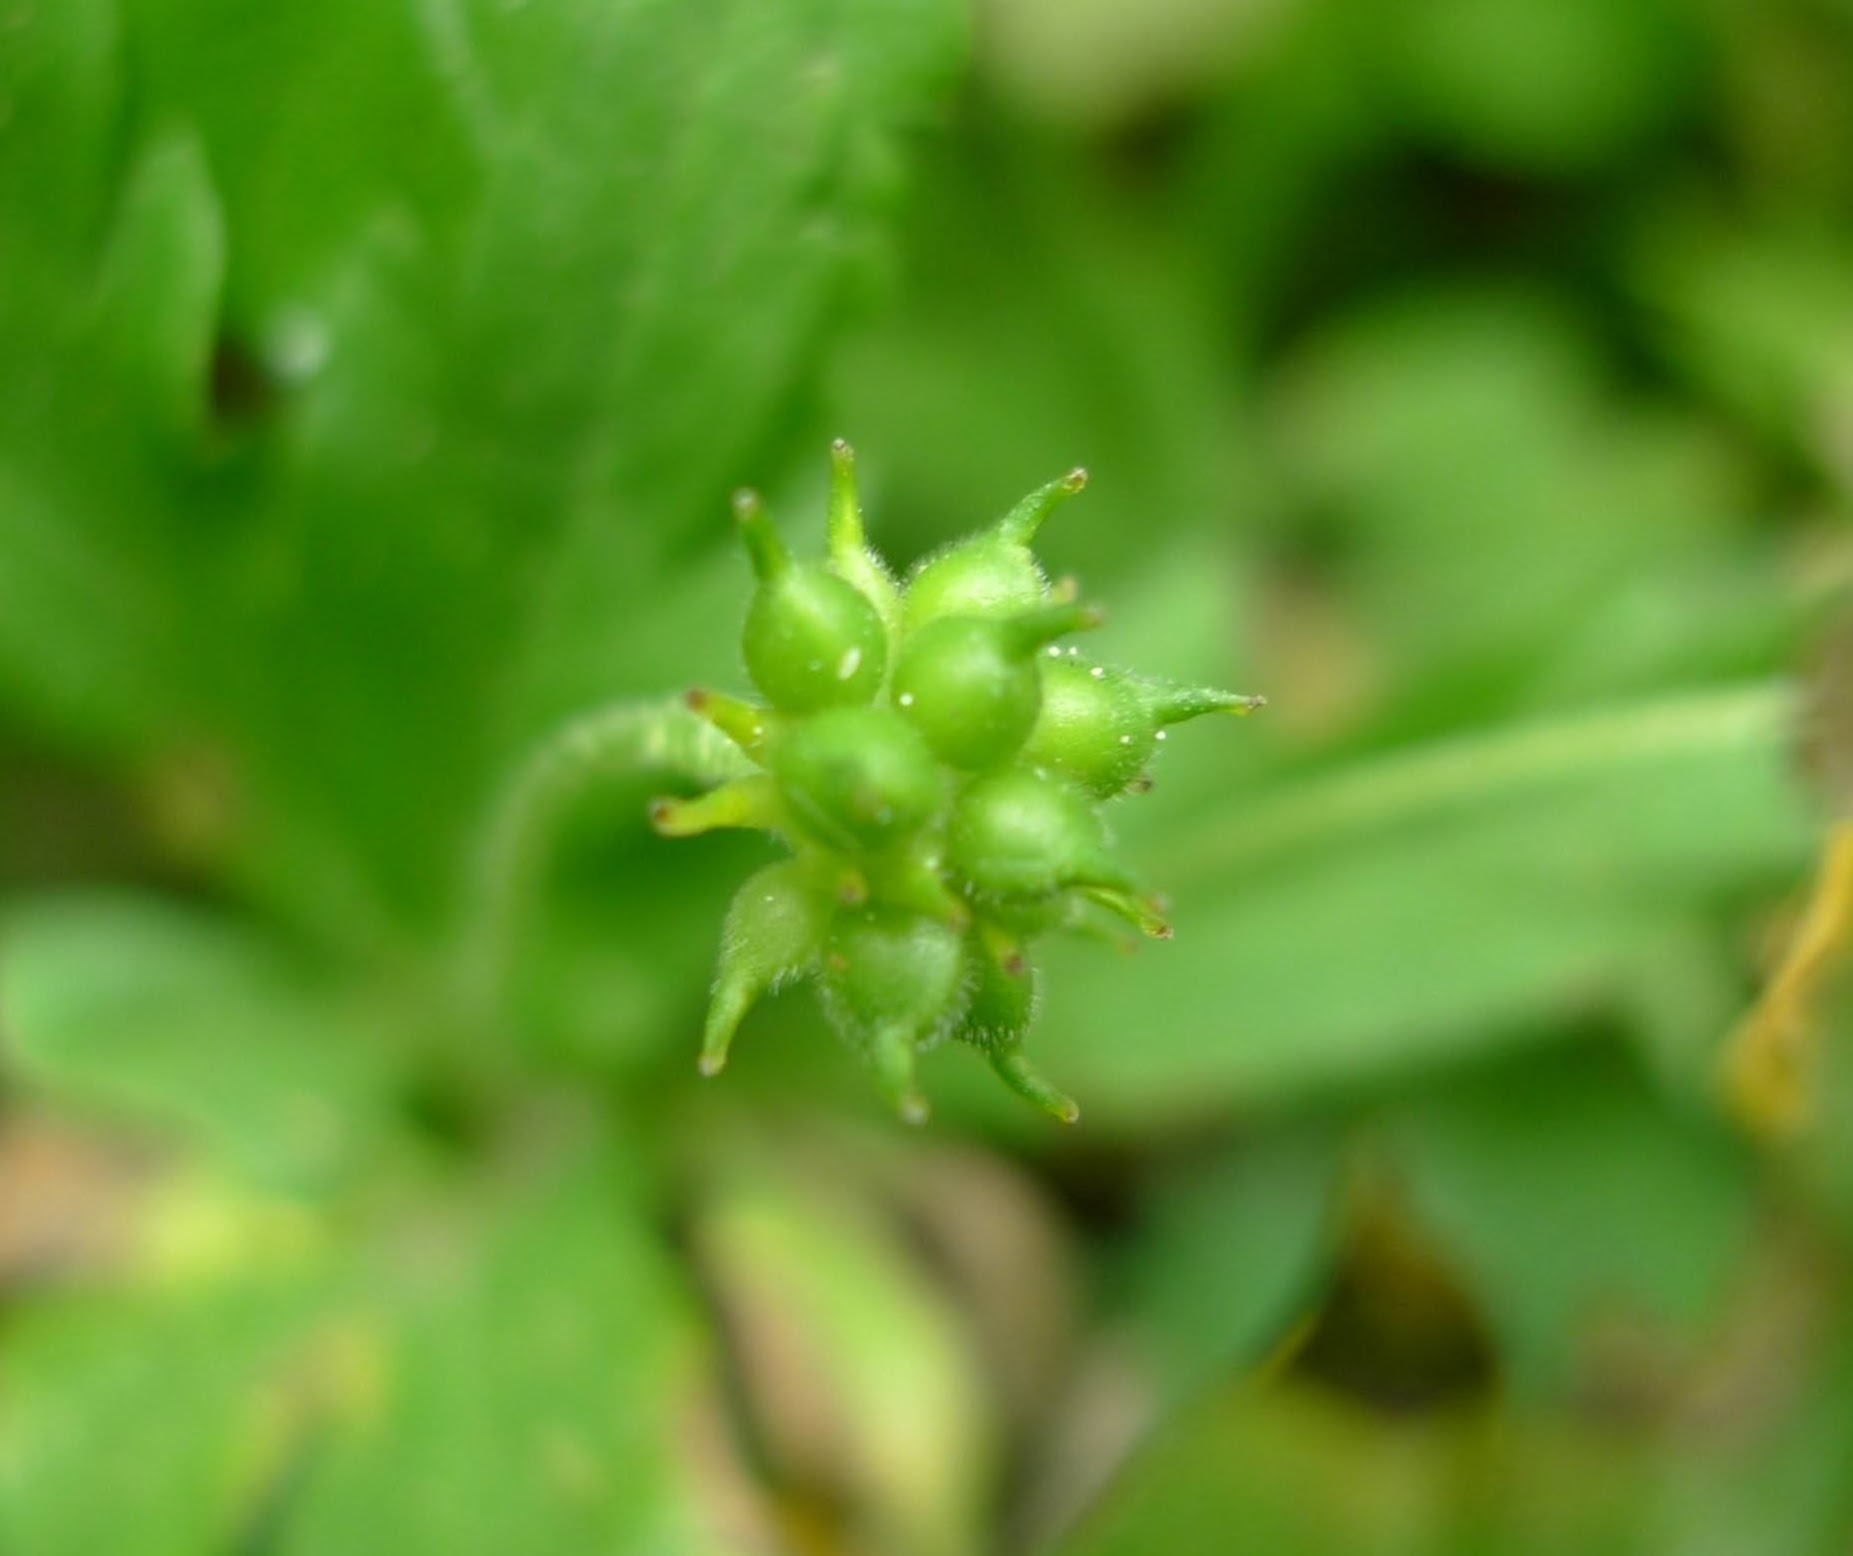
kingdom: Plantae
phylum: Tracheophyta
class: Magnoliopsida
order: Ranunculales
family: Ranunculaceae
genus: Anemone
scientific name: Anemone ranunculoides
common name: Yellow anemone
